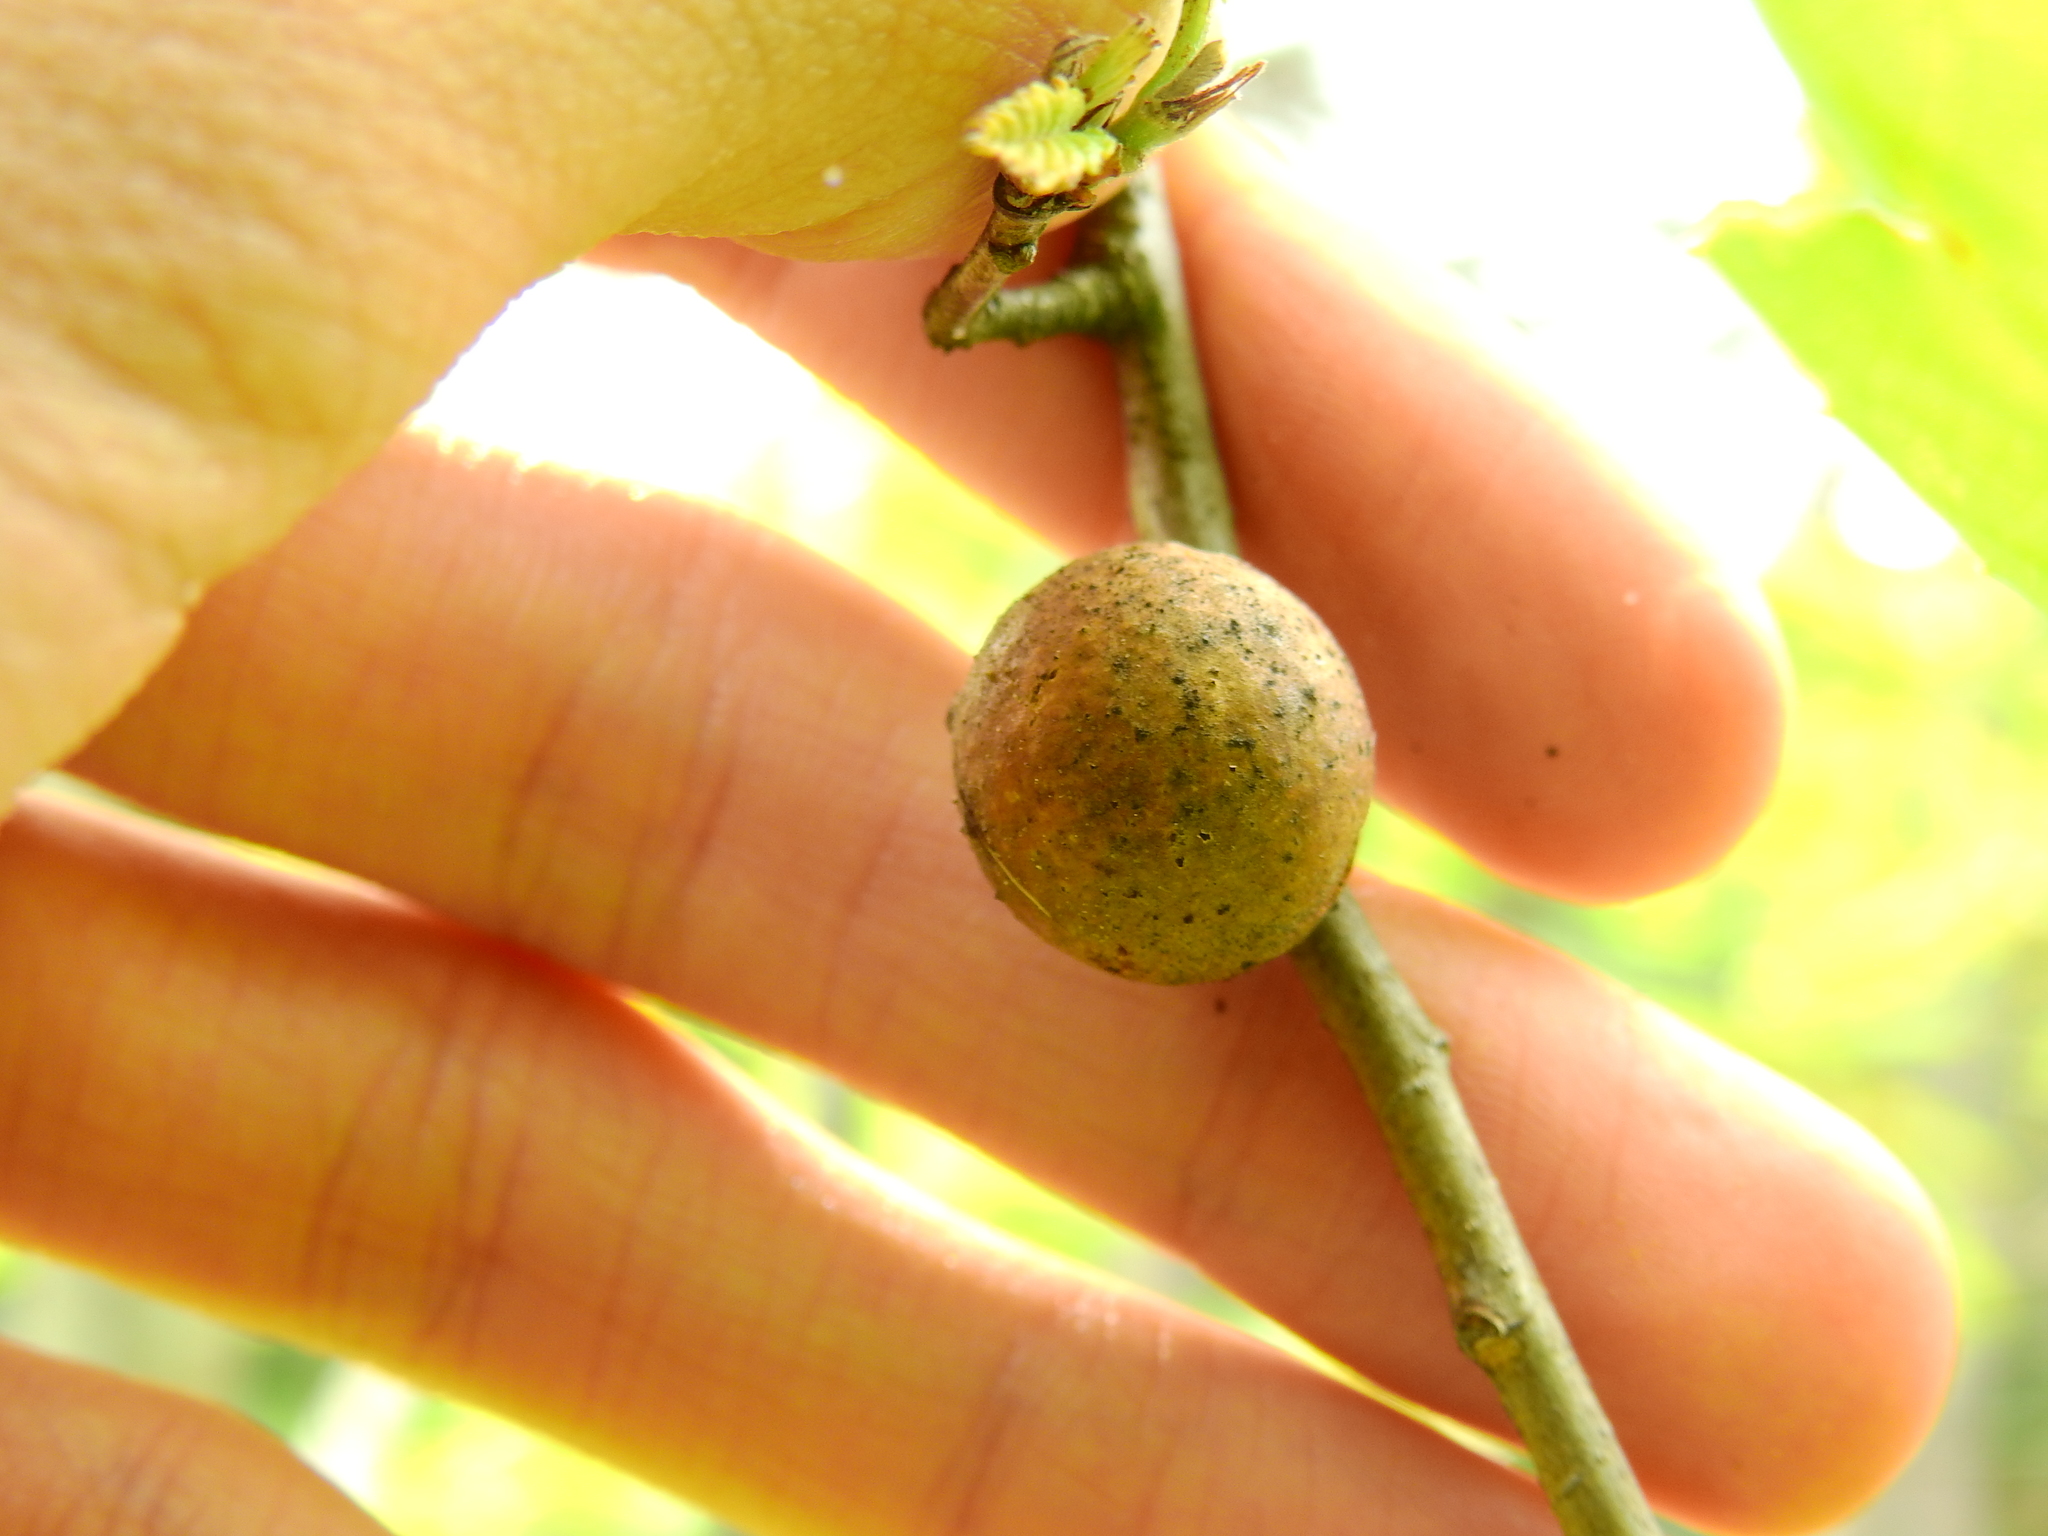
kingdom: Animalia
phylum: Arthropoda
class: Insecta
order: Hymenoptera
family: Cynipidae
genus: Disholcaspis
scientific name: Disholcaspis quercusglobulus
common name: Round bullet gall wasp
